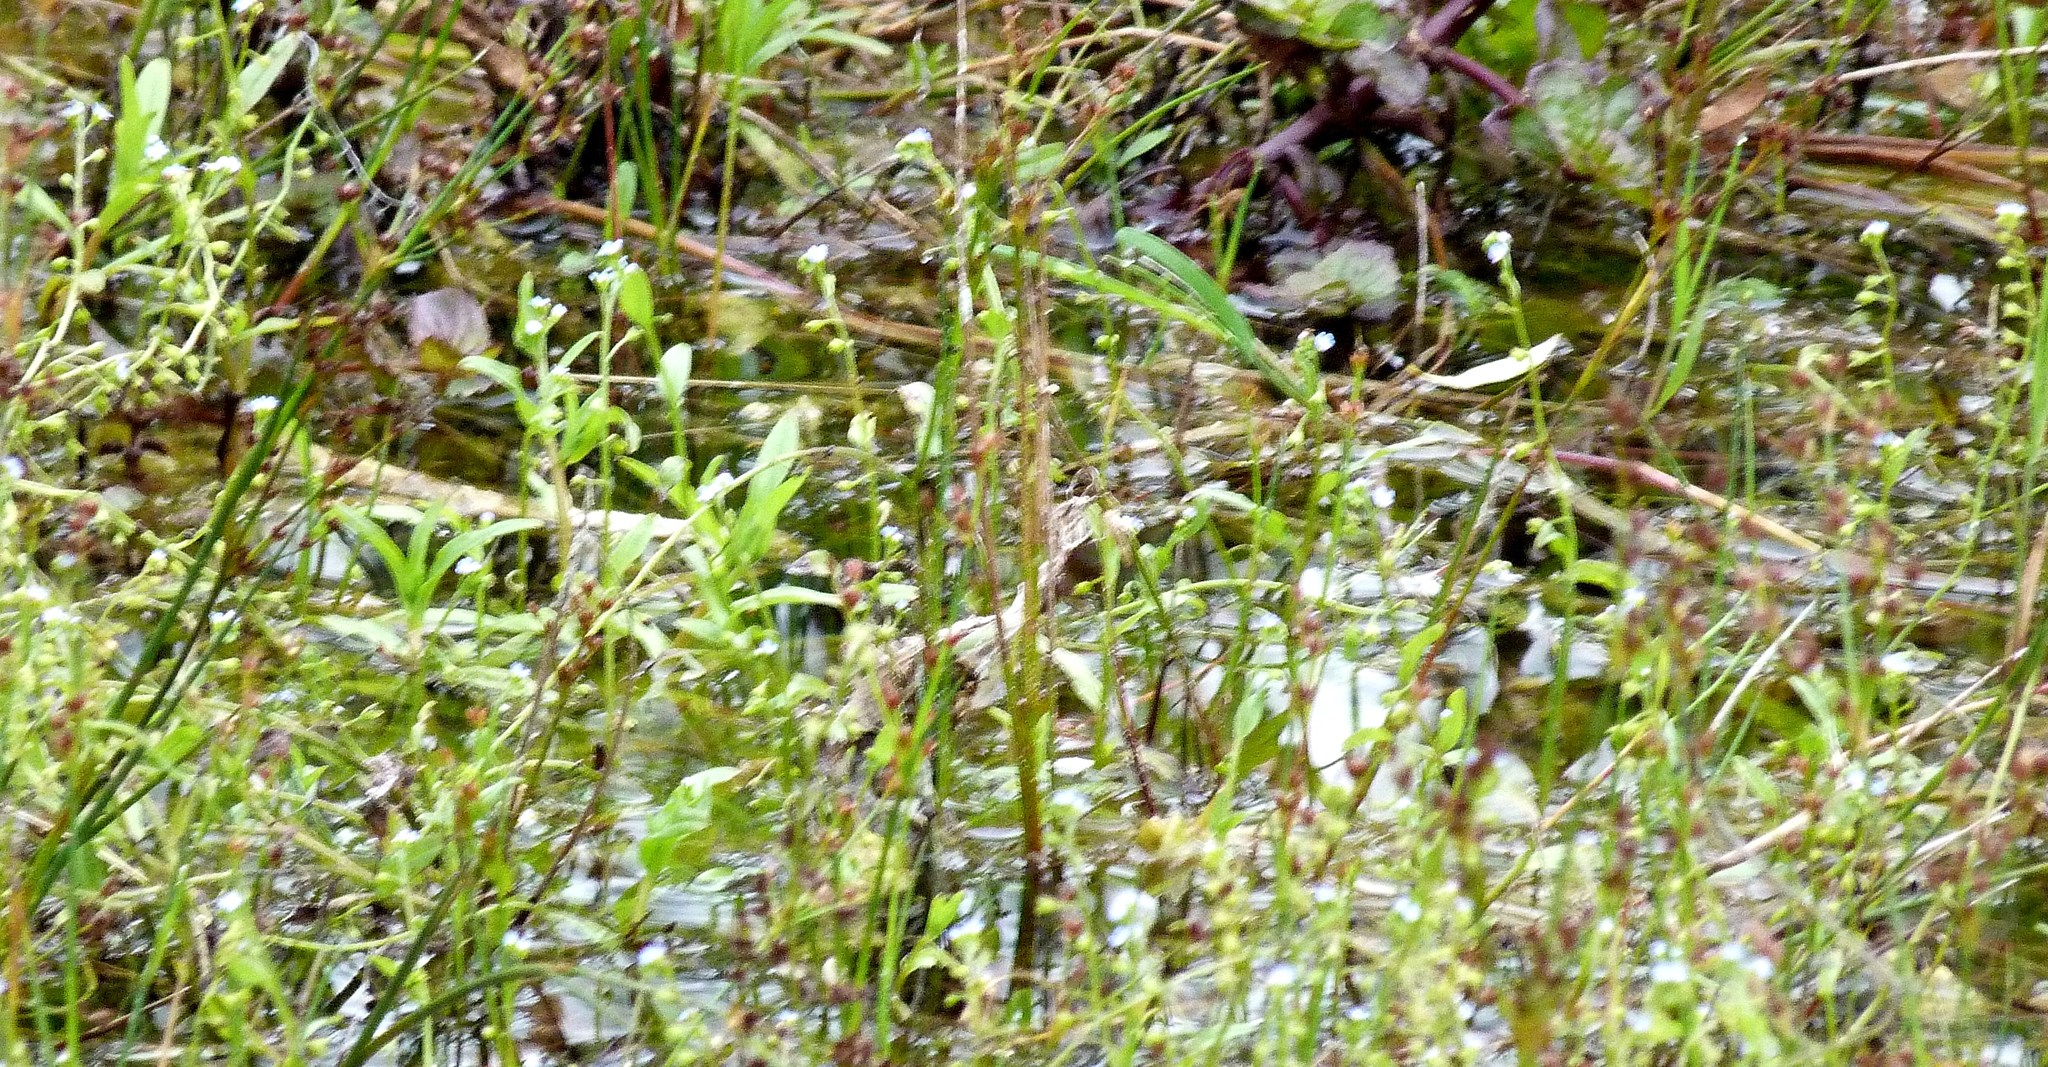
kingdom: Plantae
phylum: Tracheophyta
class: Magnoliopsida
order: Boraginales
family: Boraginaceae
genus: Myosotis
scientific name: Myosotis laxa
